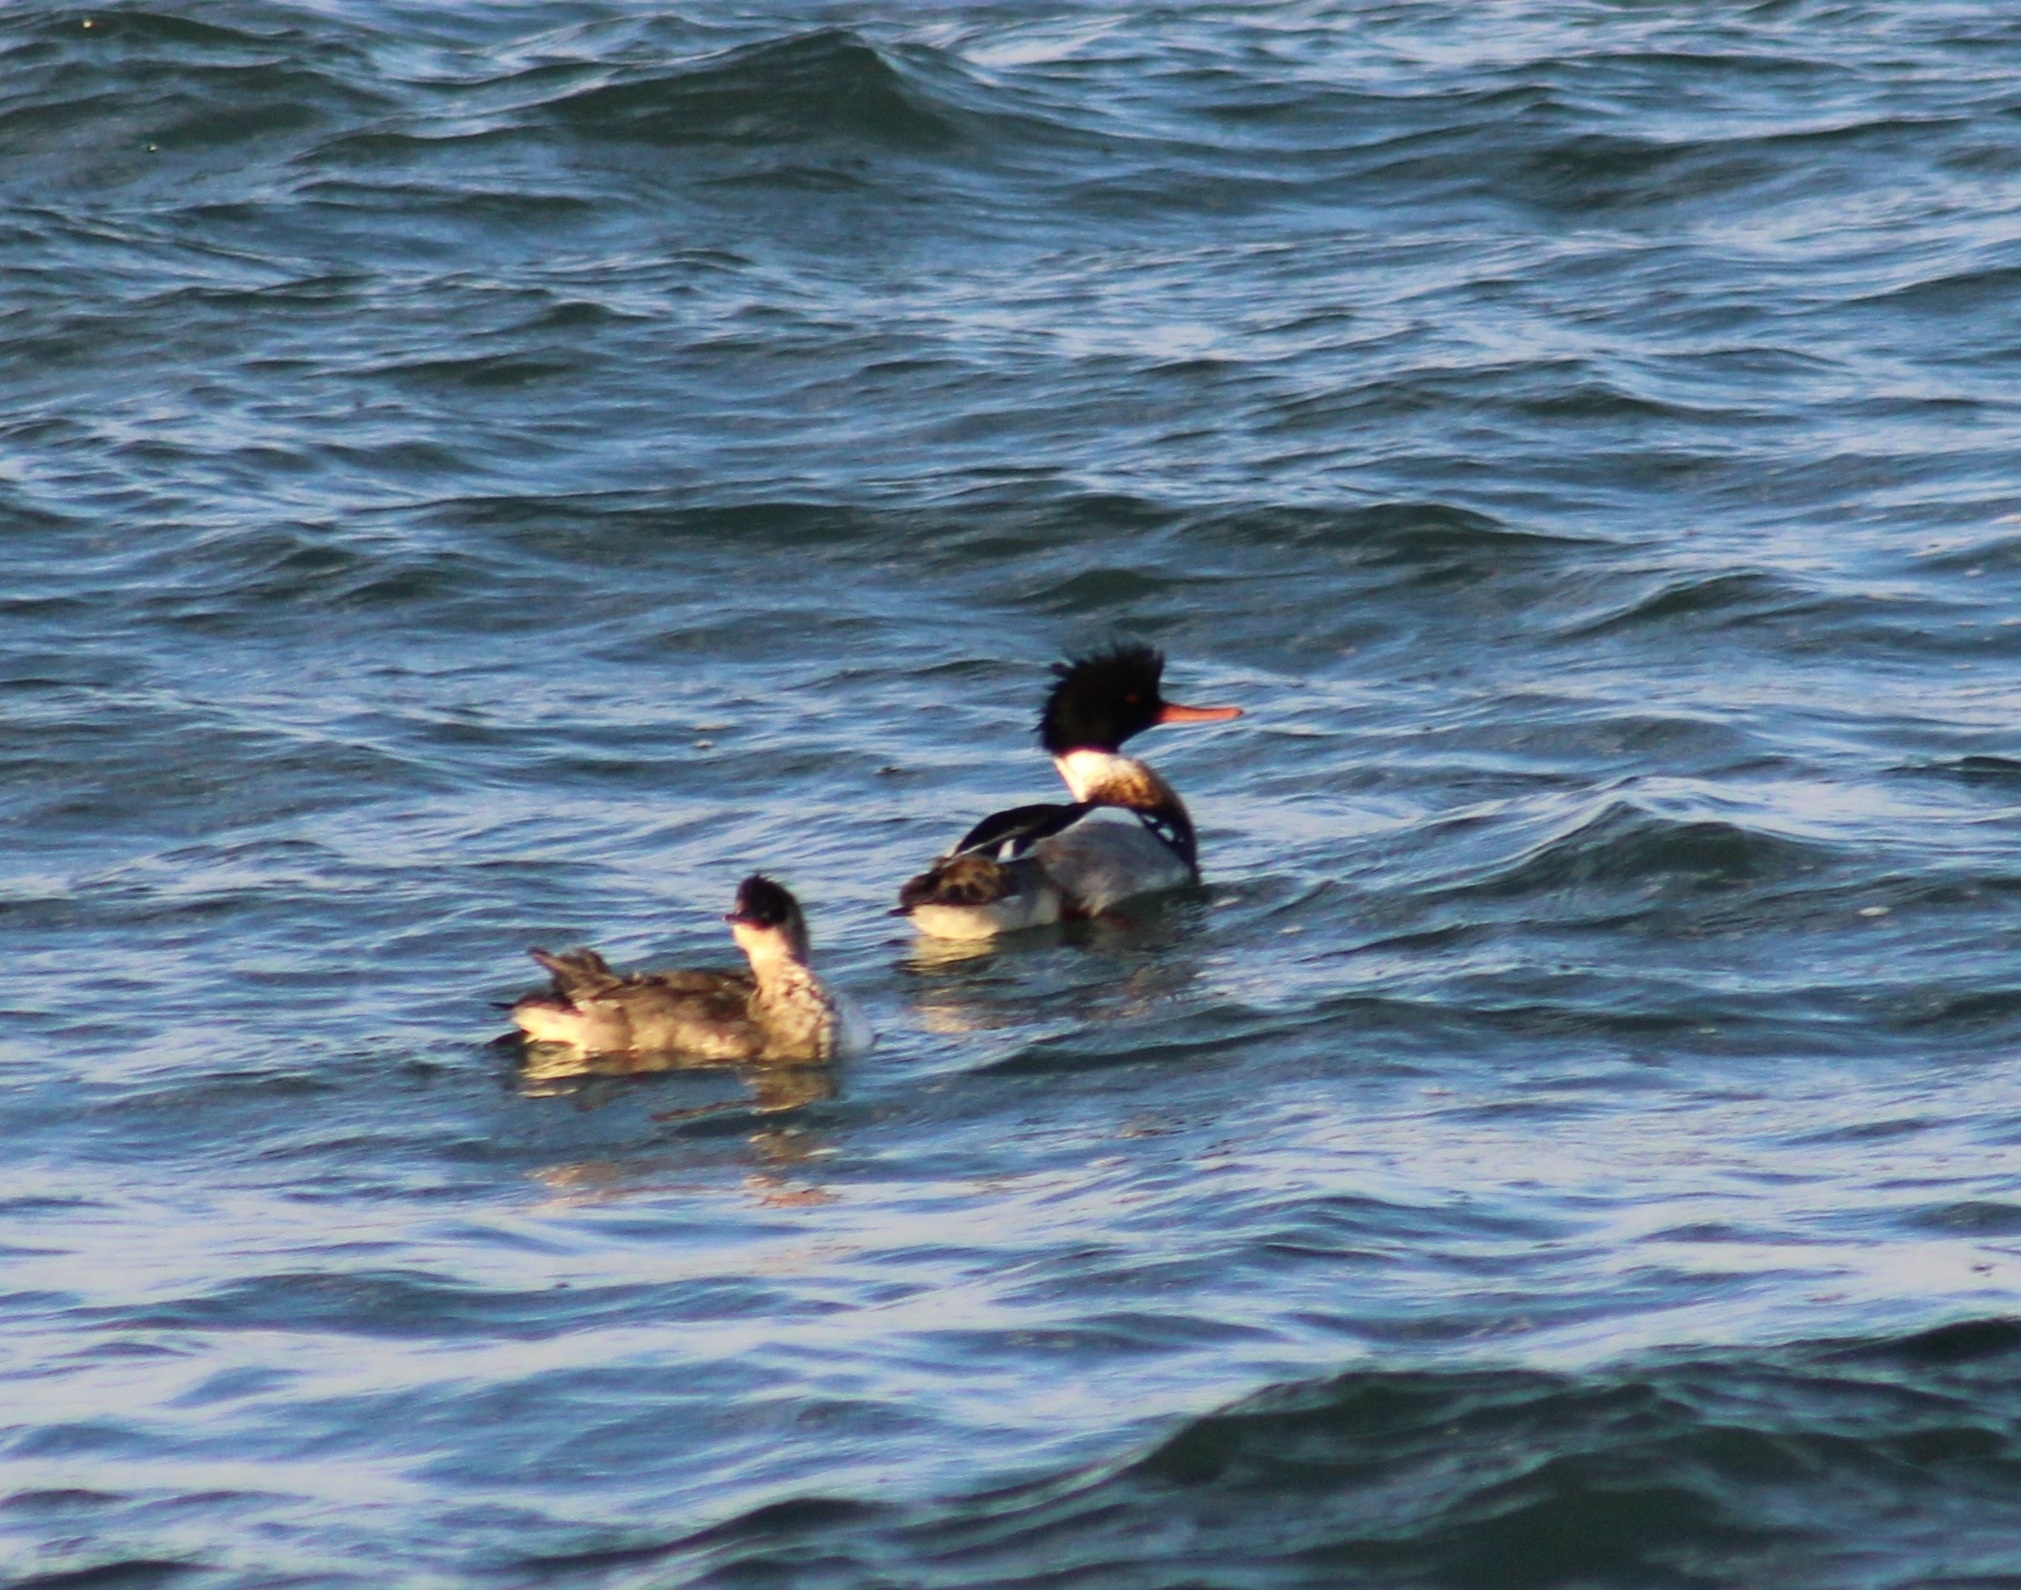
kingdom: Animalia
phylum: Chordata
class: Aves
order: Anseriformes
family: Anatidae
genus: Mergus
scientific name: Mergus serrator
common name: Red-breasted merganser
